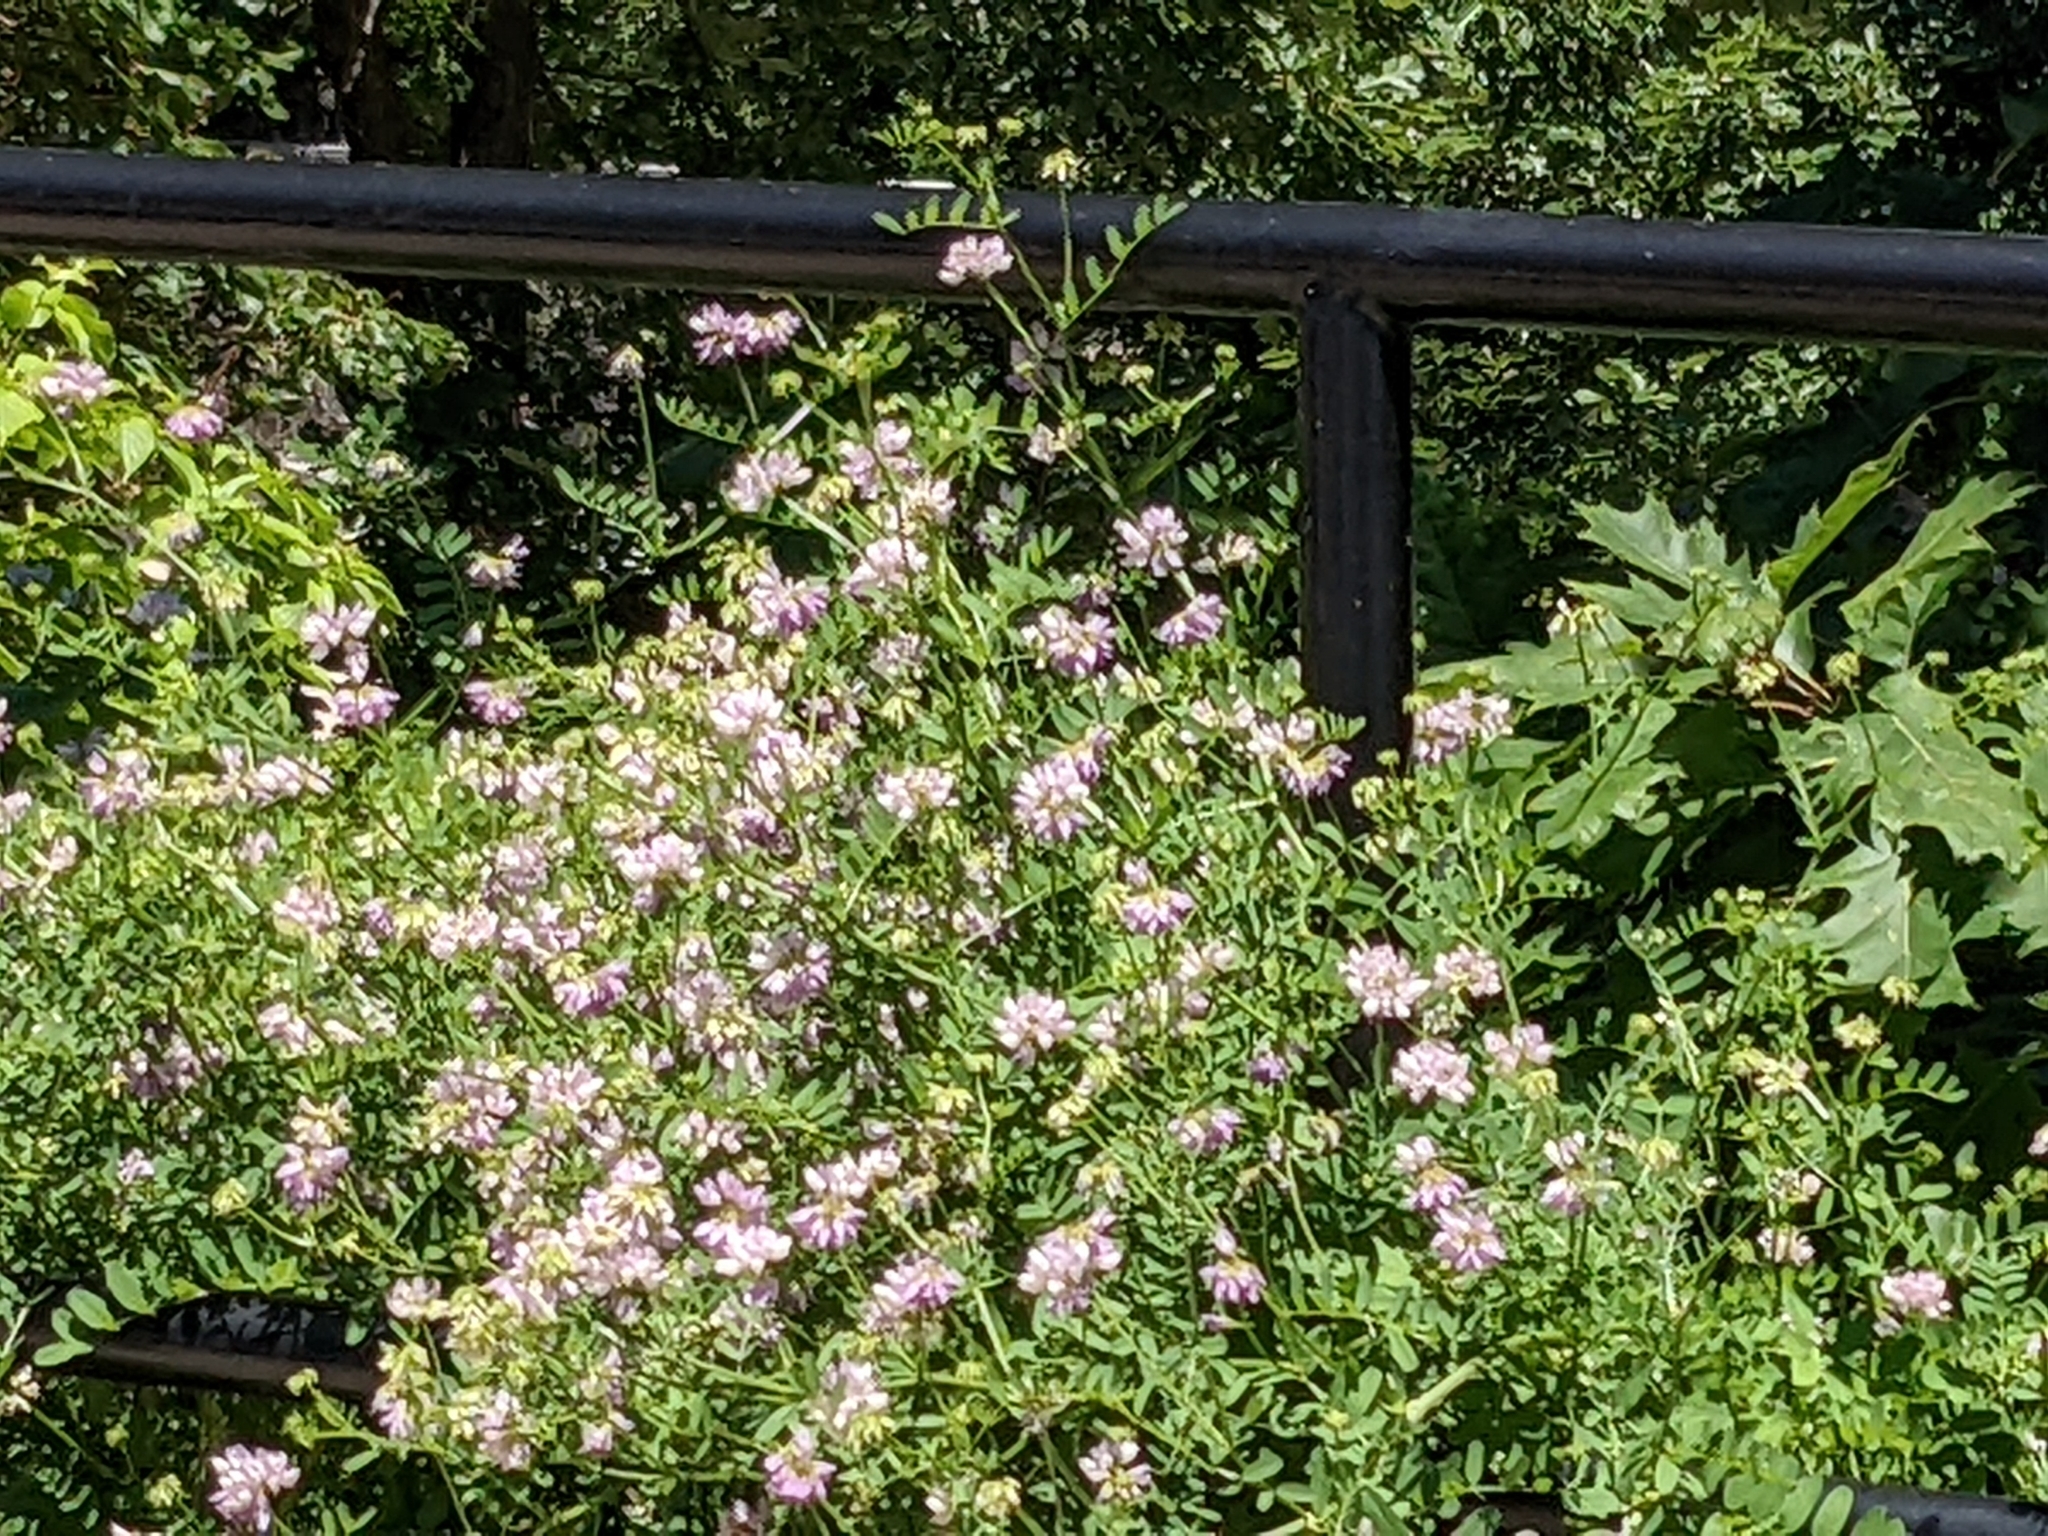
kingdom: Plantae
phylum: Tracheophyta
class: Magnoliopsida
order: Fabales
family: Fabaceae
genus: Coronilla
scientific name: Coronilla varia
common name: Crownvetch
